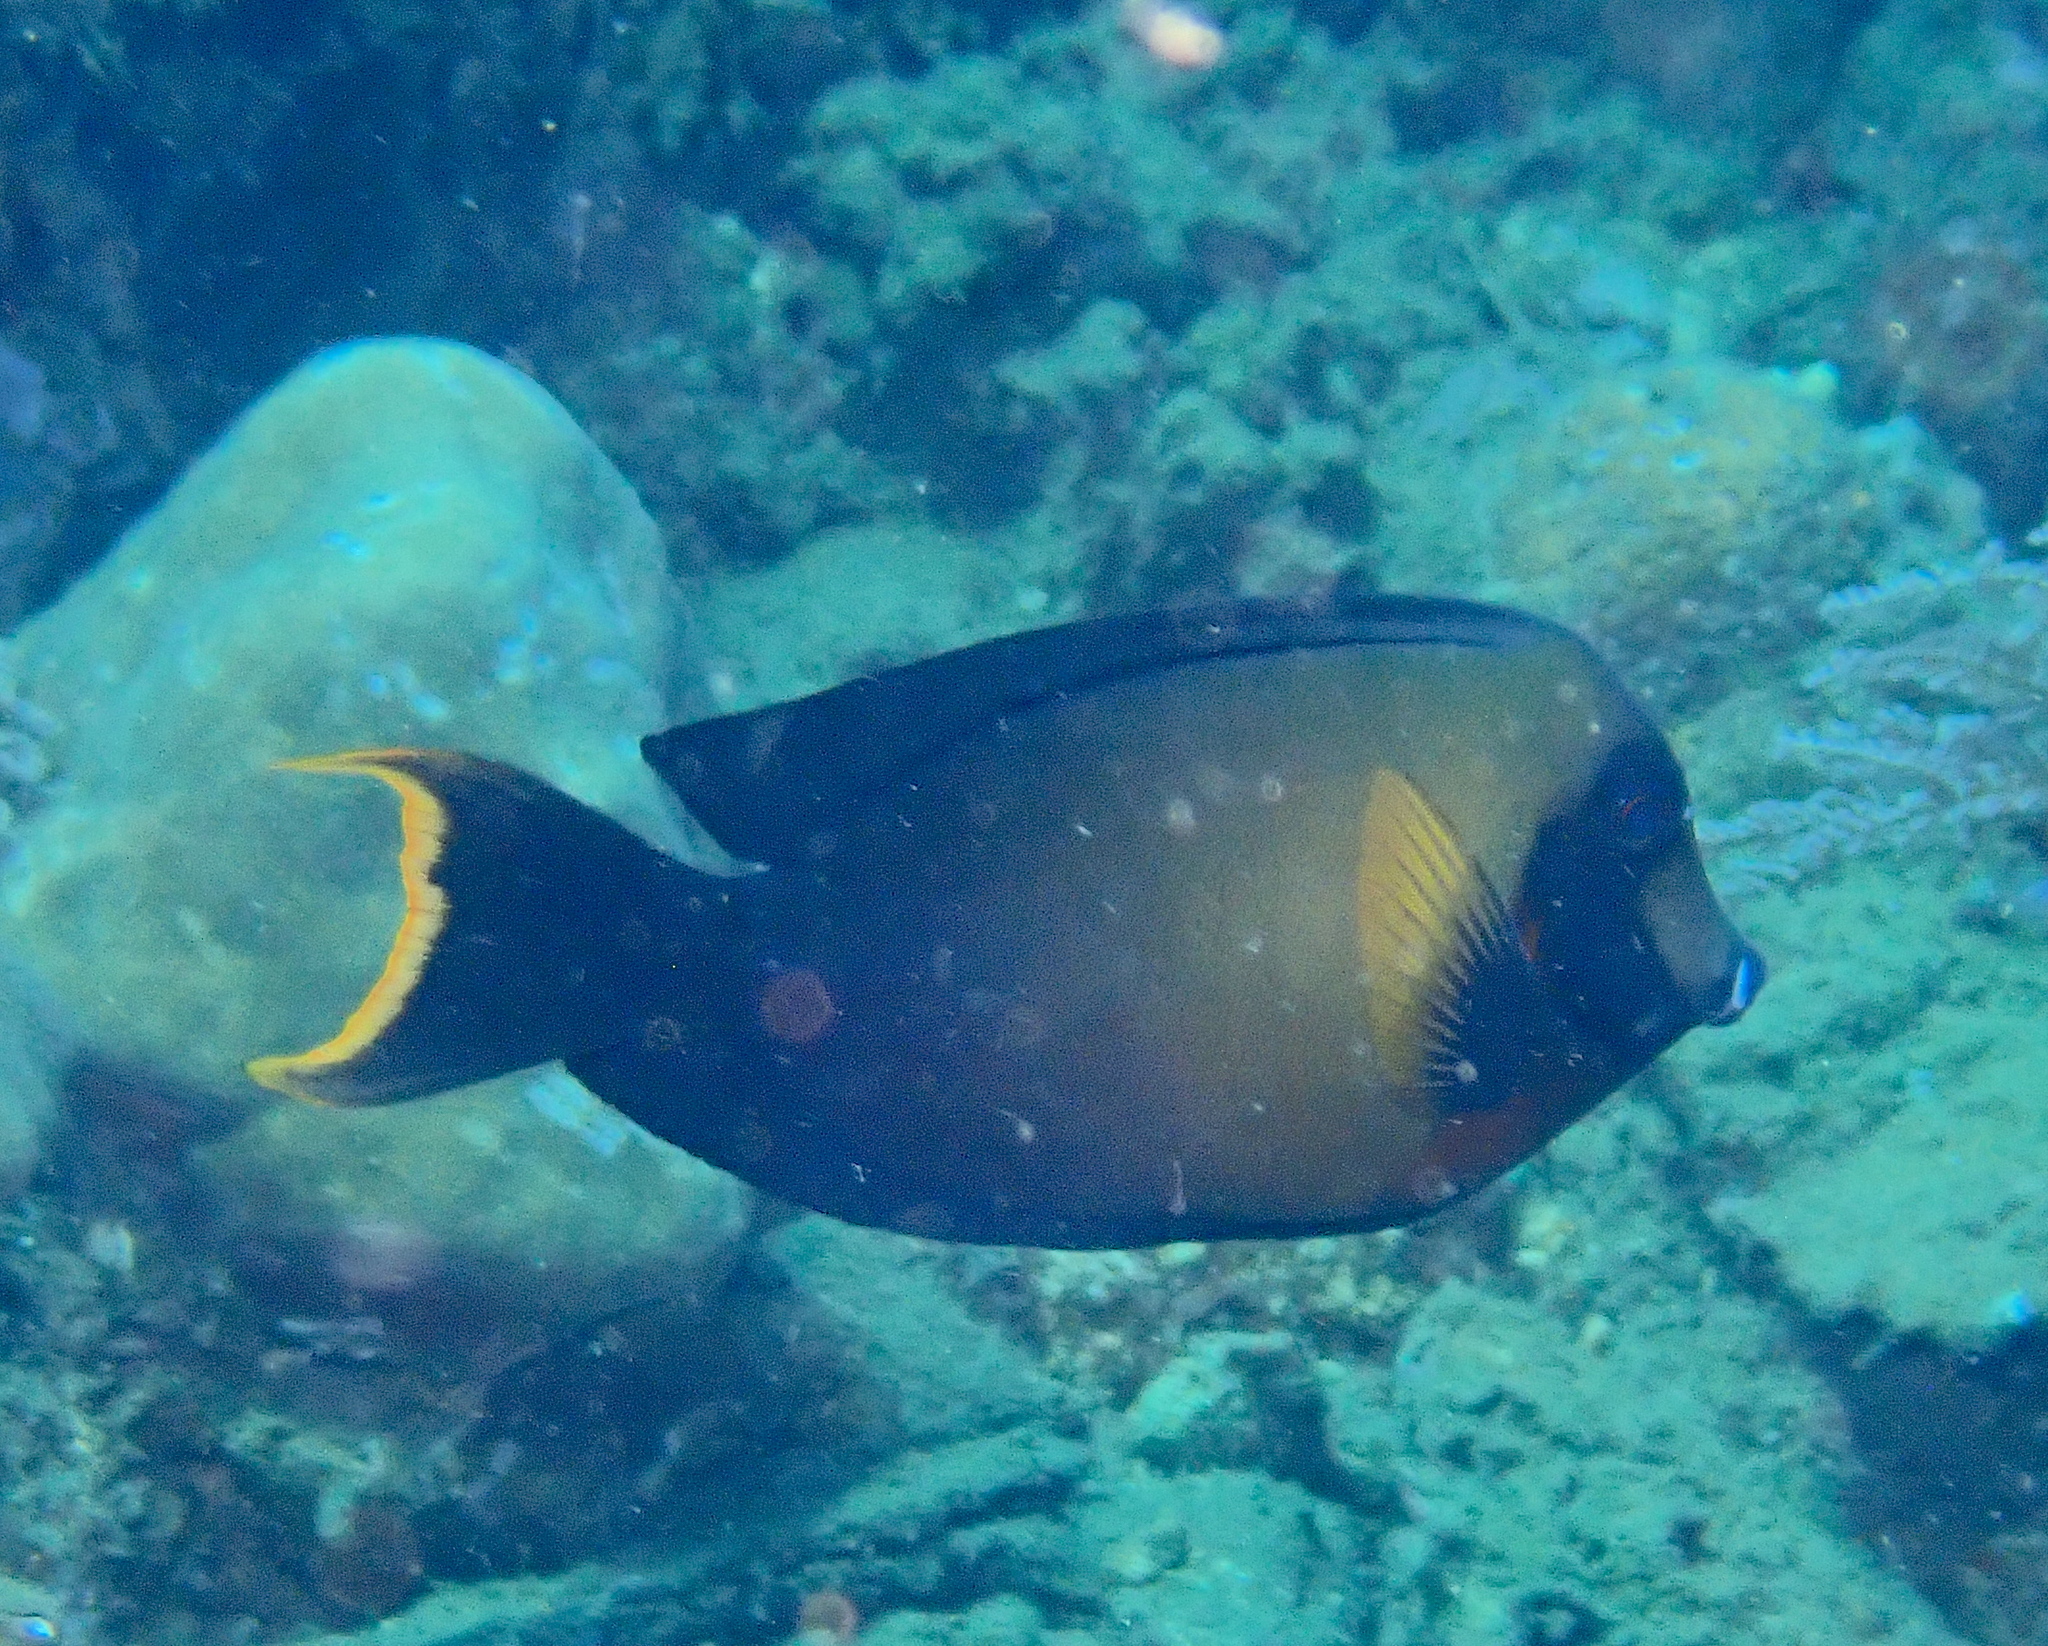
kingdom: Animalia
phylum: Chordata
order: Perciformes
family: Acanthuridae
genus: Acanthurus
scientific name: Acanthurus pyroferus
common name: Chocolate surgeonfish
